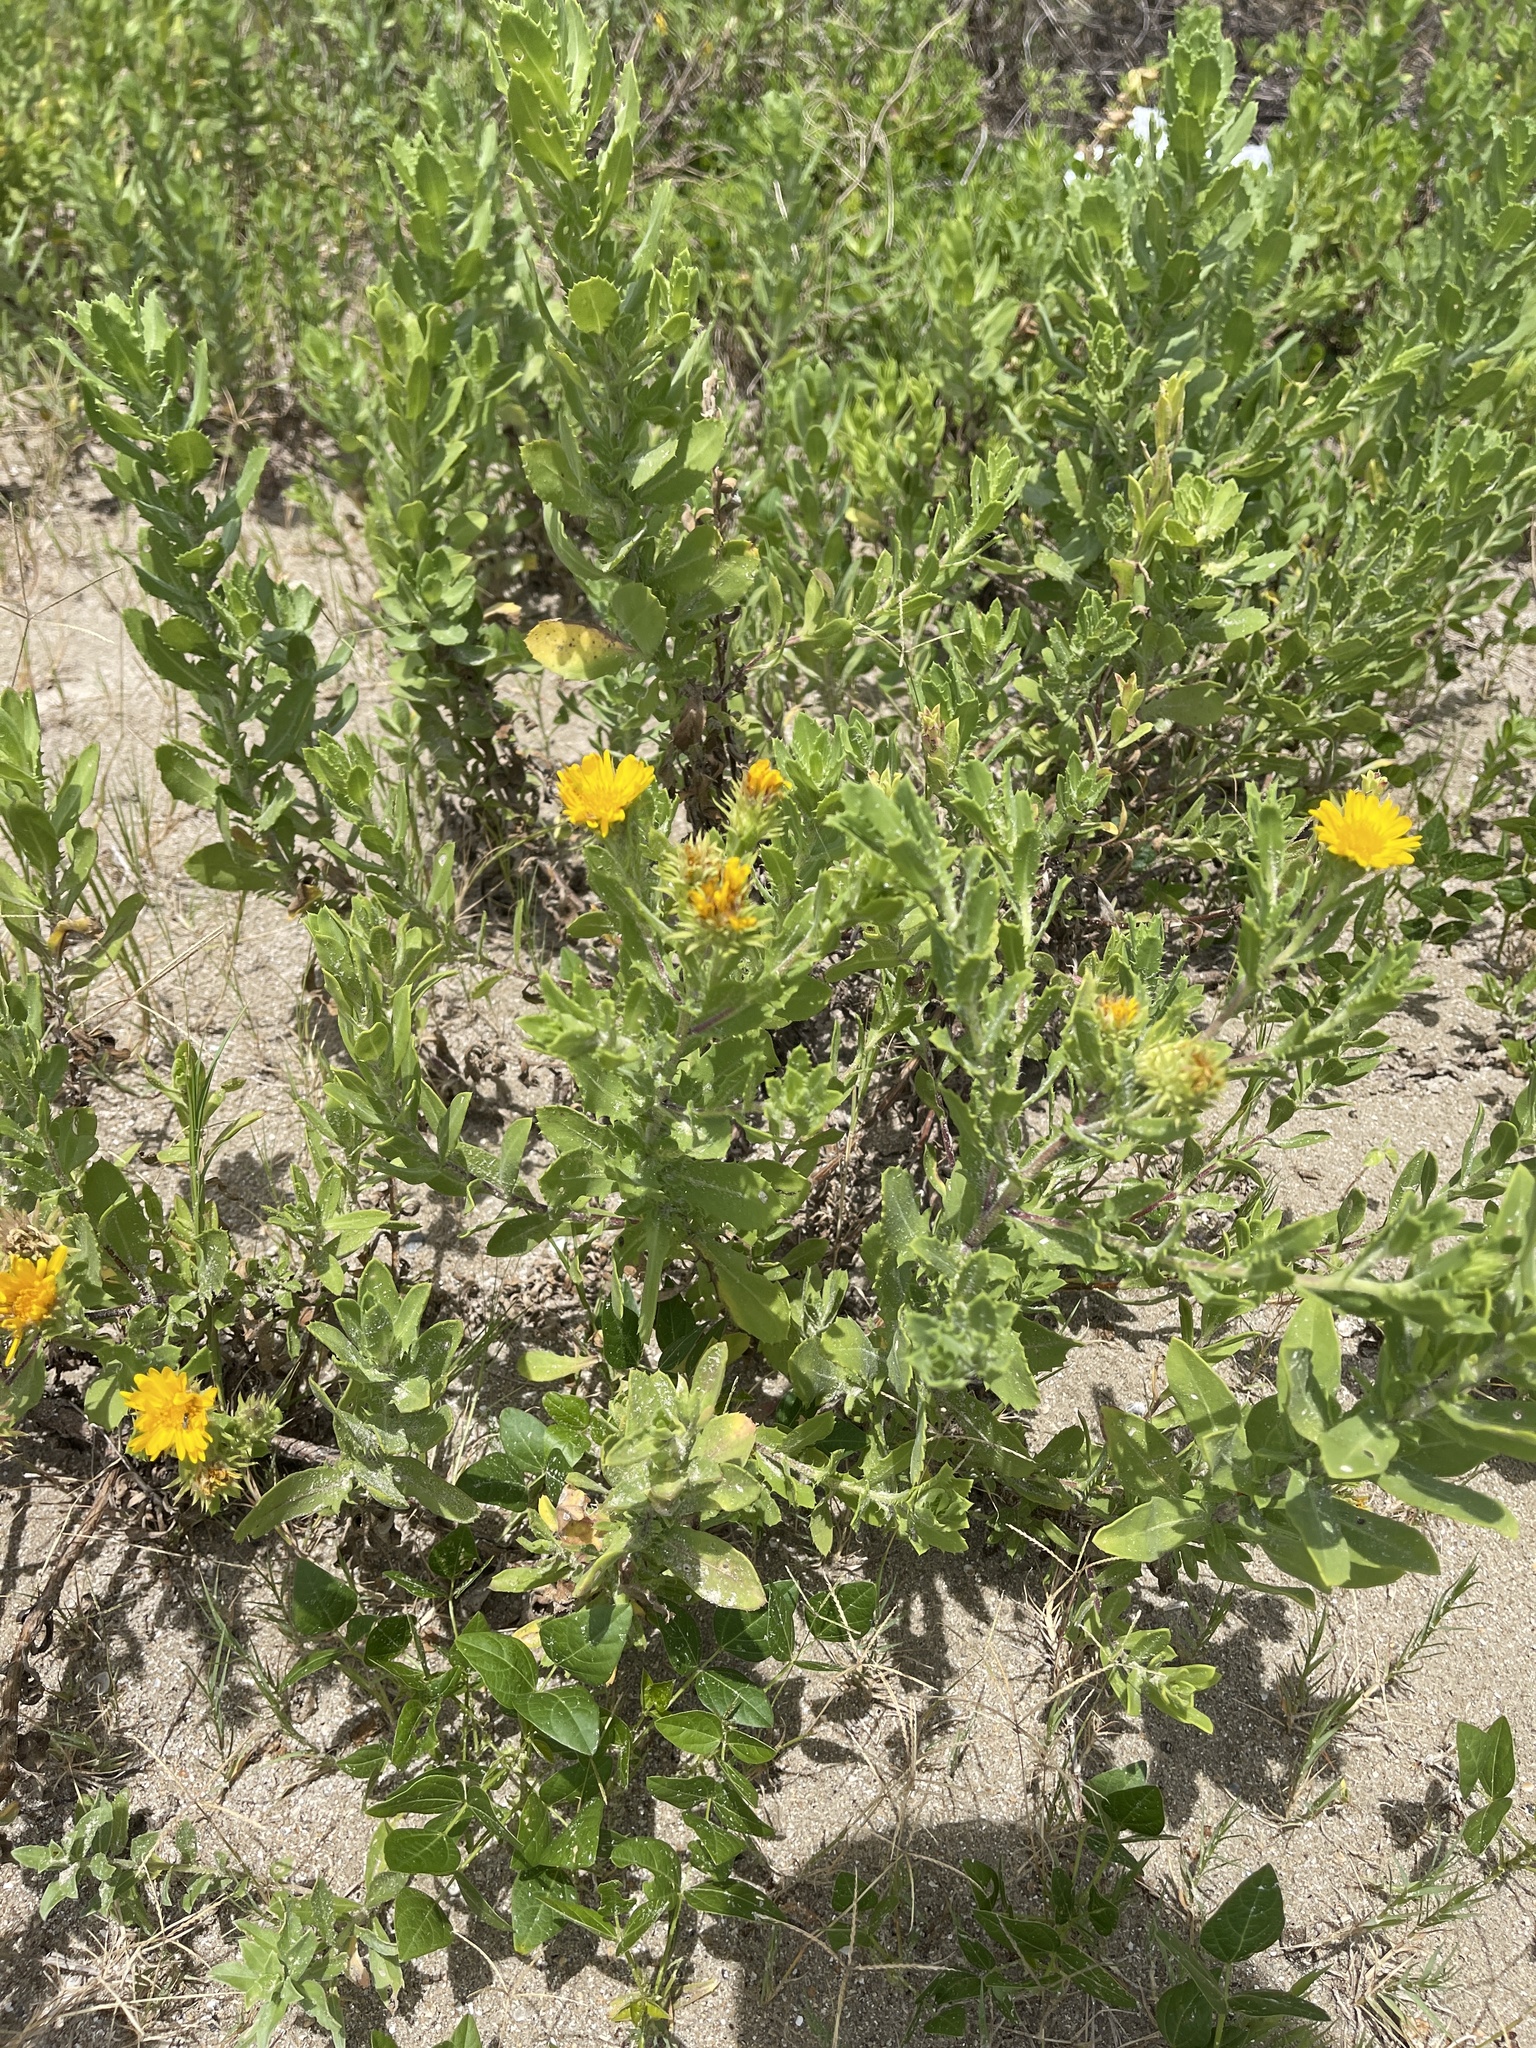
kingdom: Plantae
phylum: Tracheophyta
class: Magnoliopsida
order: Asterales
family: Asteraceae
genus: Rayjacksonia
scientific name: Rayjacksonia phyllocephala
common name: Gulf coast camphor daisy
